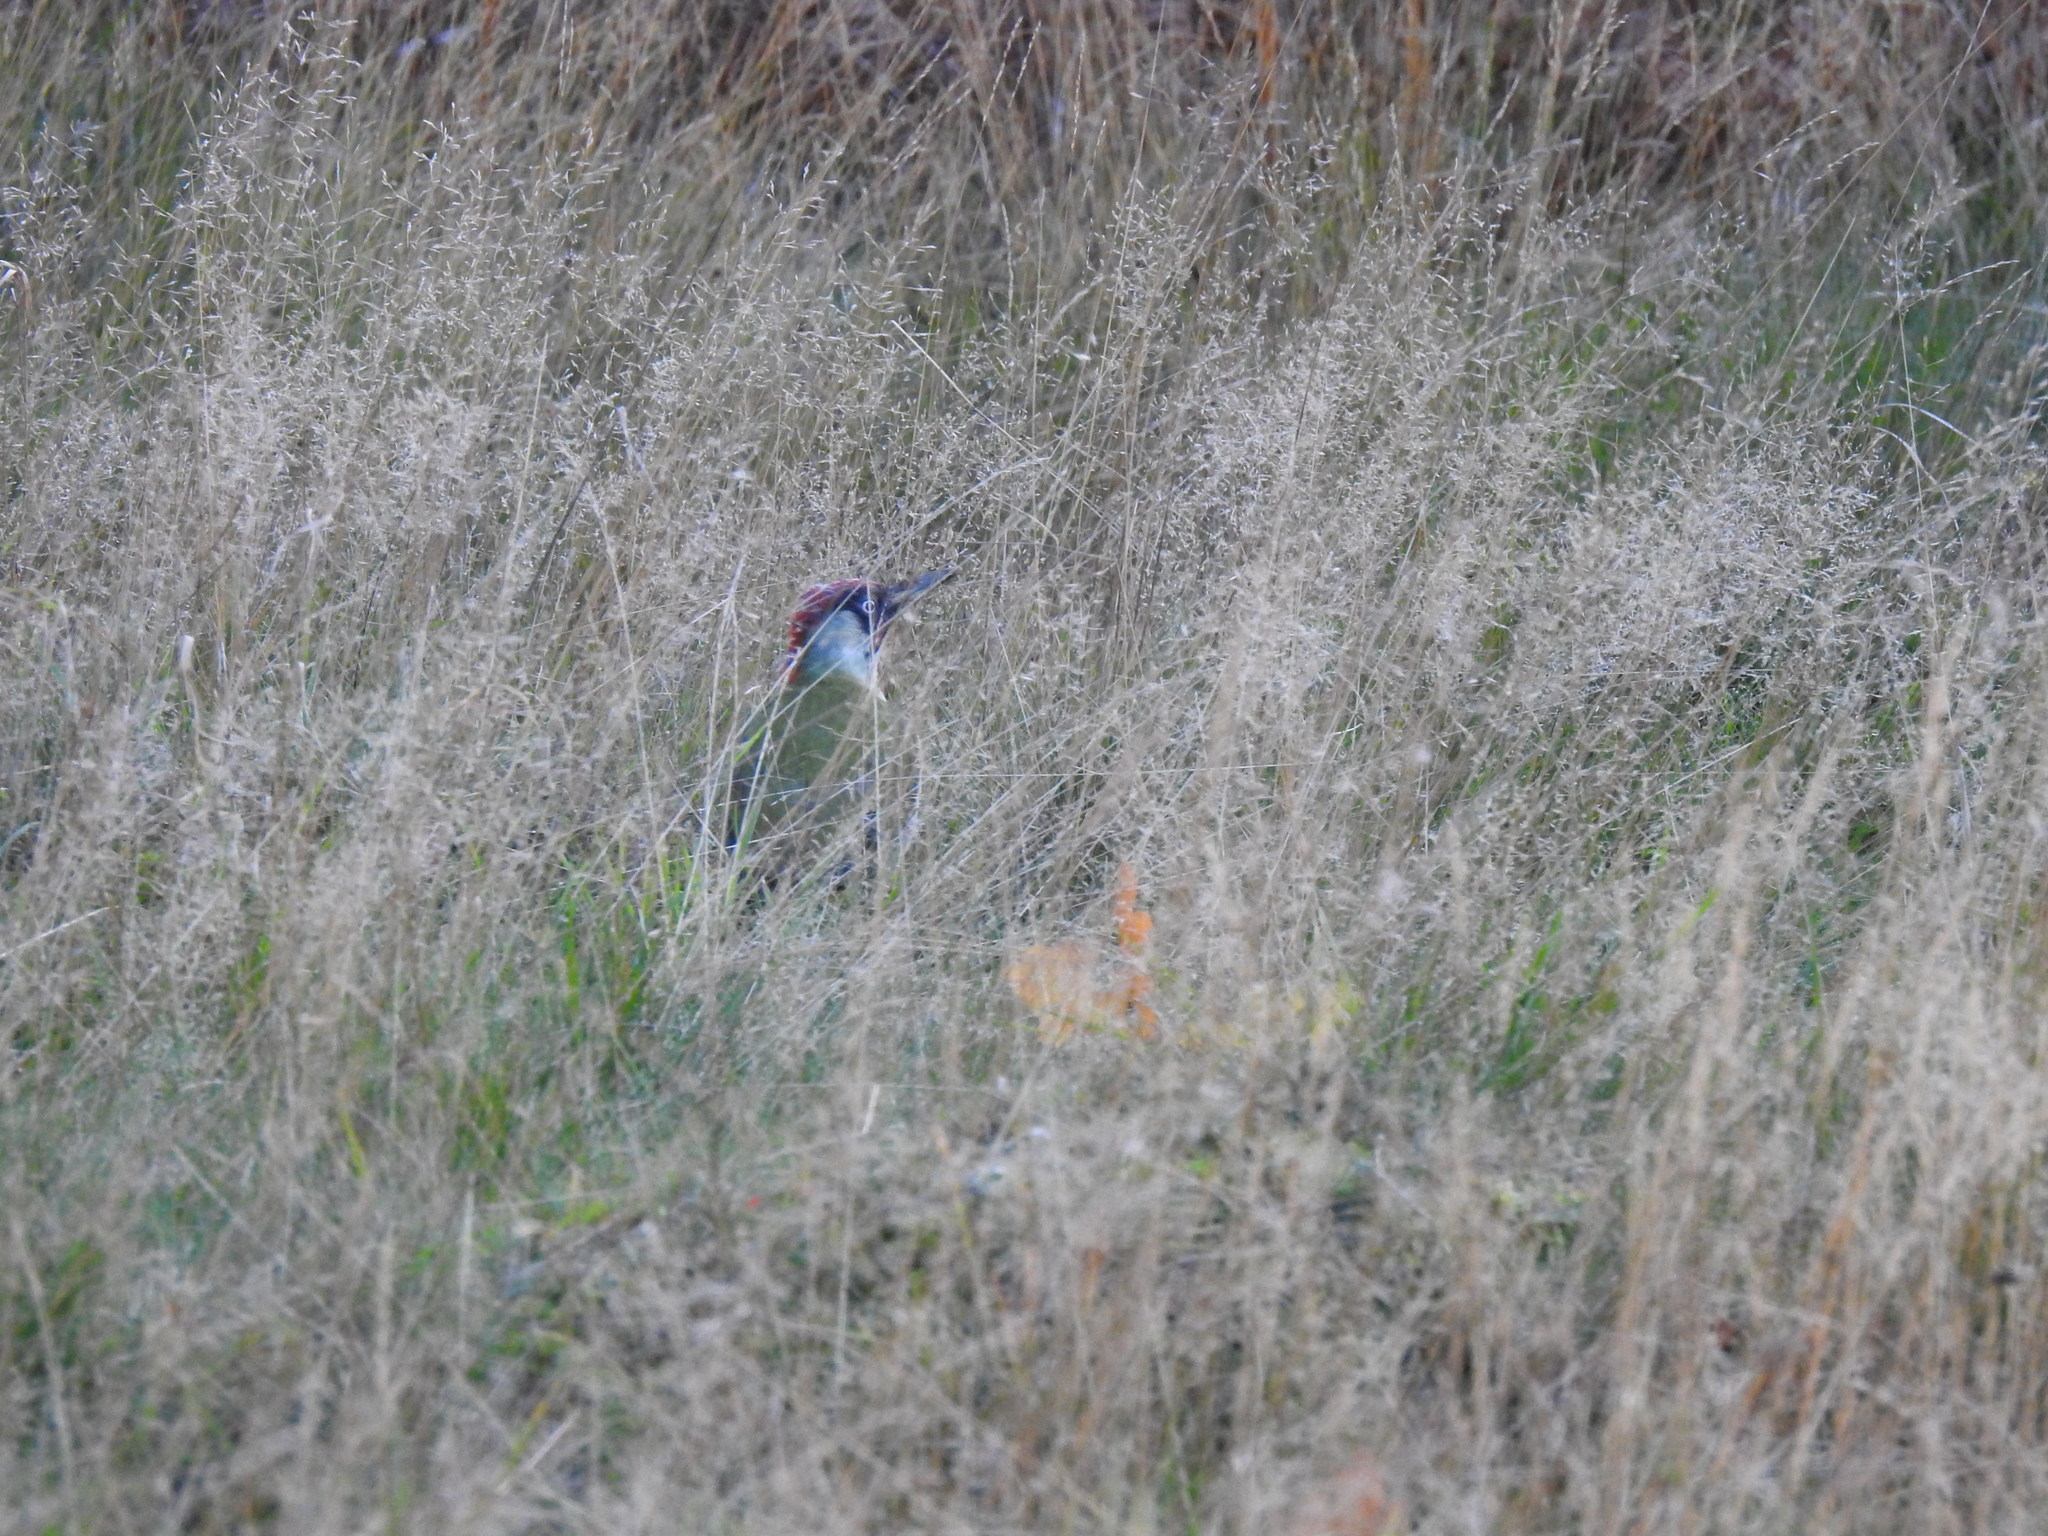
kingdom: Animalia
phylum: Chordata
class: Aves
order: Piciformes
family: Picidae
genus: Picus
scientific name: Picus viridis
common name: European green woodpecker
